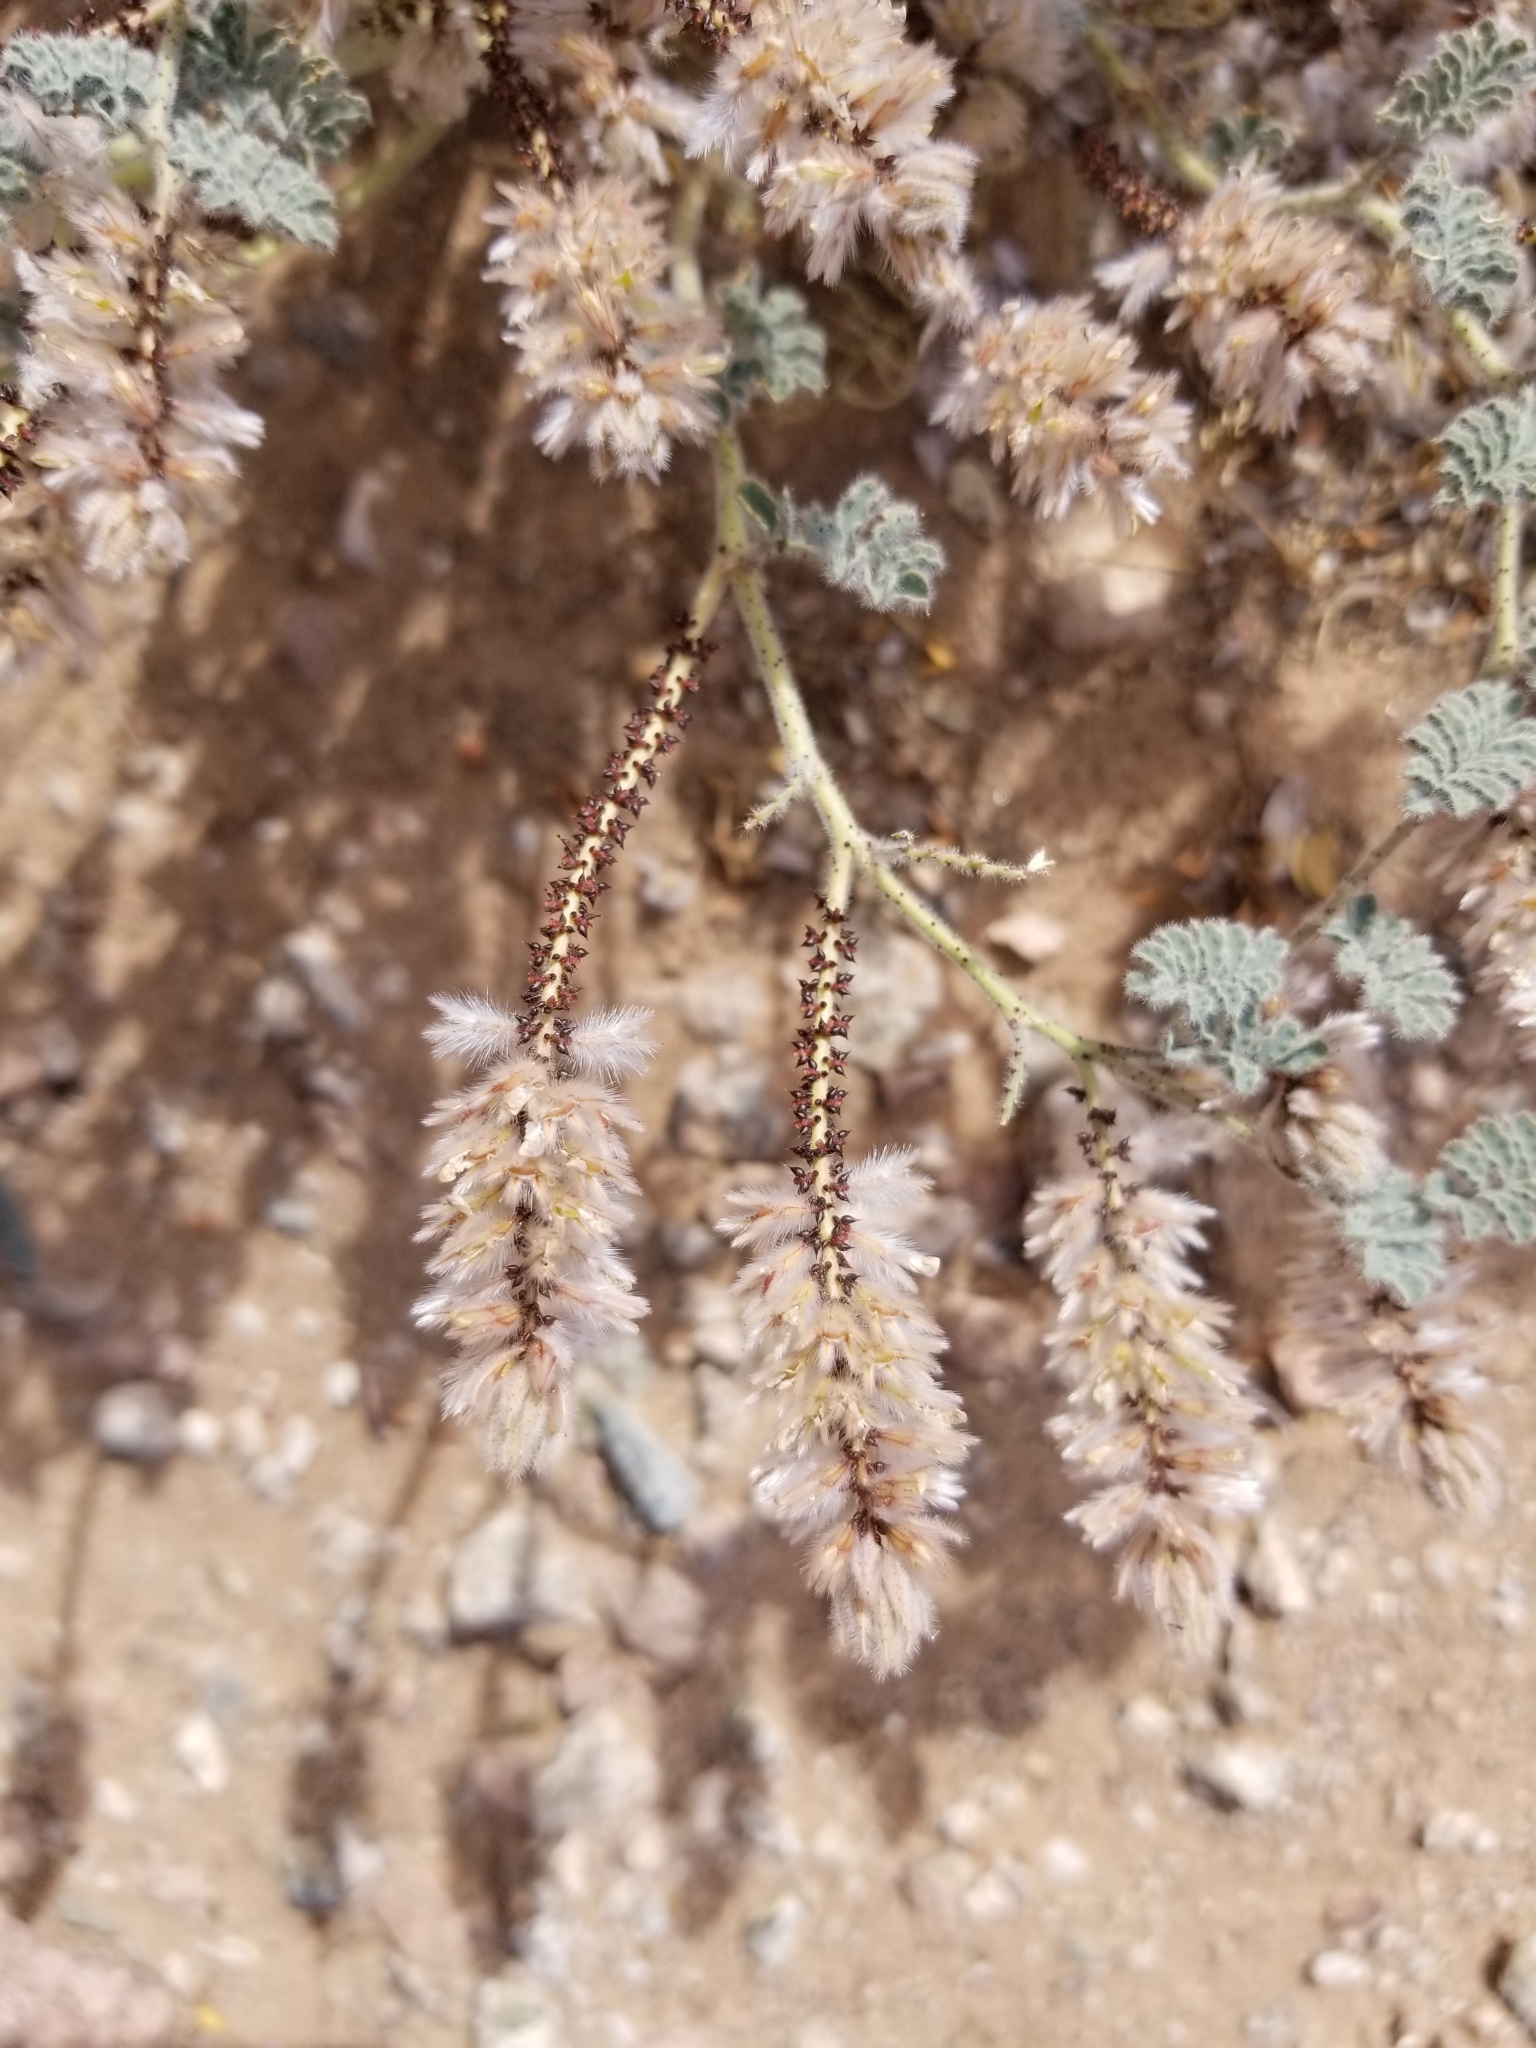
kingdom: Plantae
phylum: Tracheophyta
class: Magnoliopsida
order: Fabales
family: Fabaceae
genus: Dalea
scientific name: Dalea mollissima
